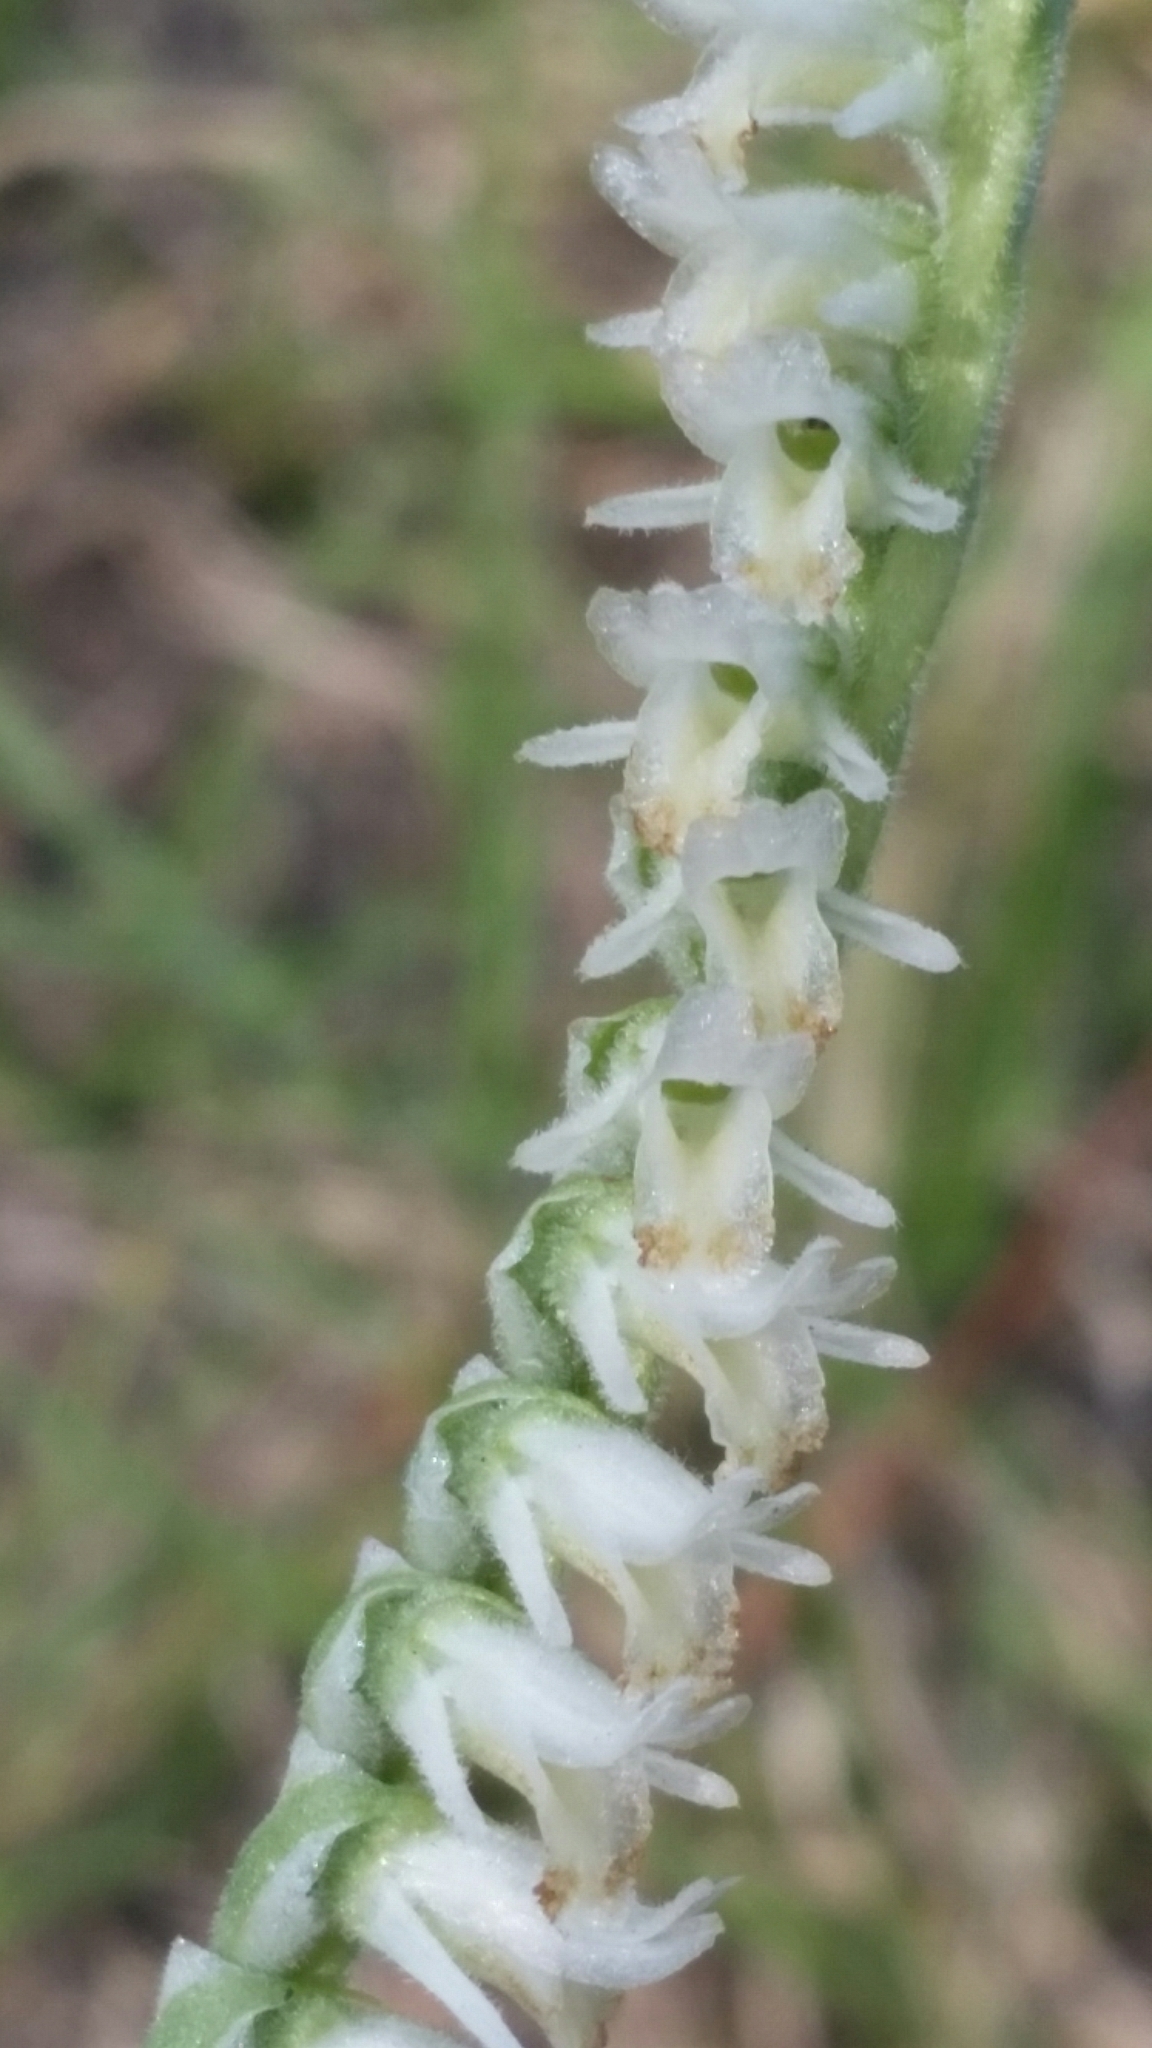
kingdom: Plantae
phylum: Tracheophyta
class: Liliopsida
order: Asparagales
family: Orchidaceae
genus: Spiranthes
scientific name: Spiranthes vernalis
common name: Spring ladies'-tresses
